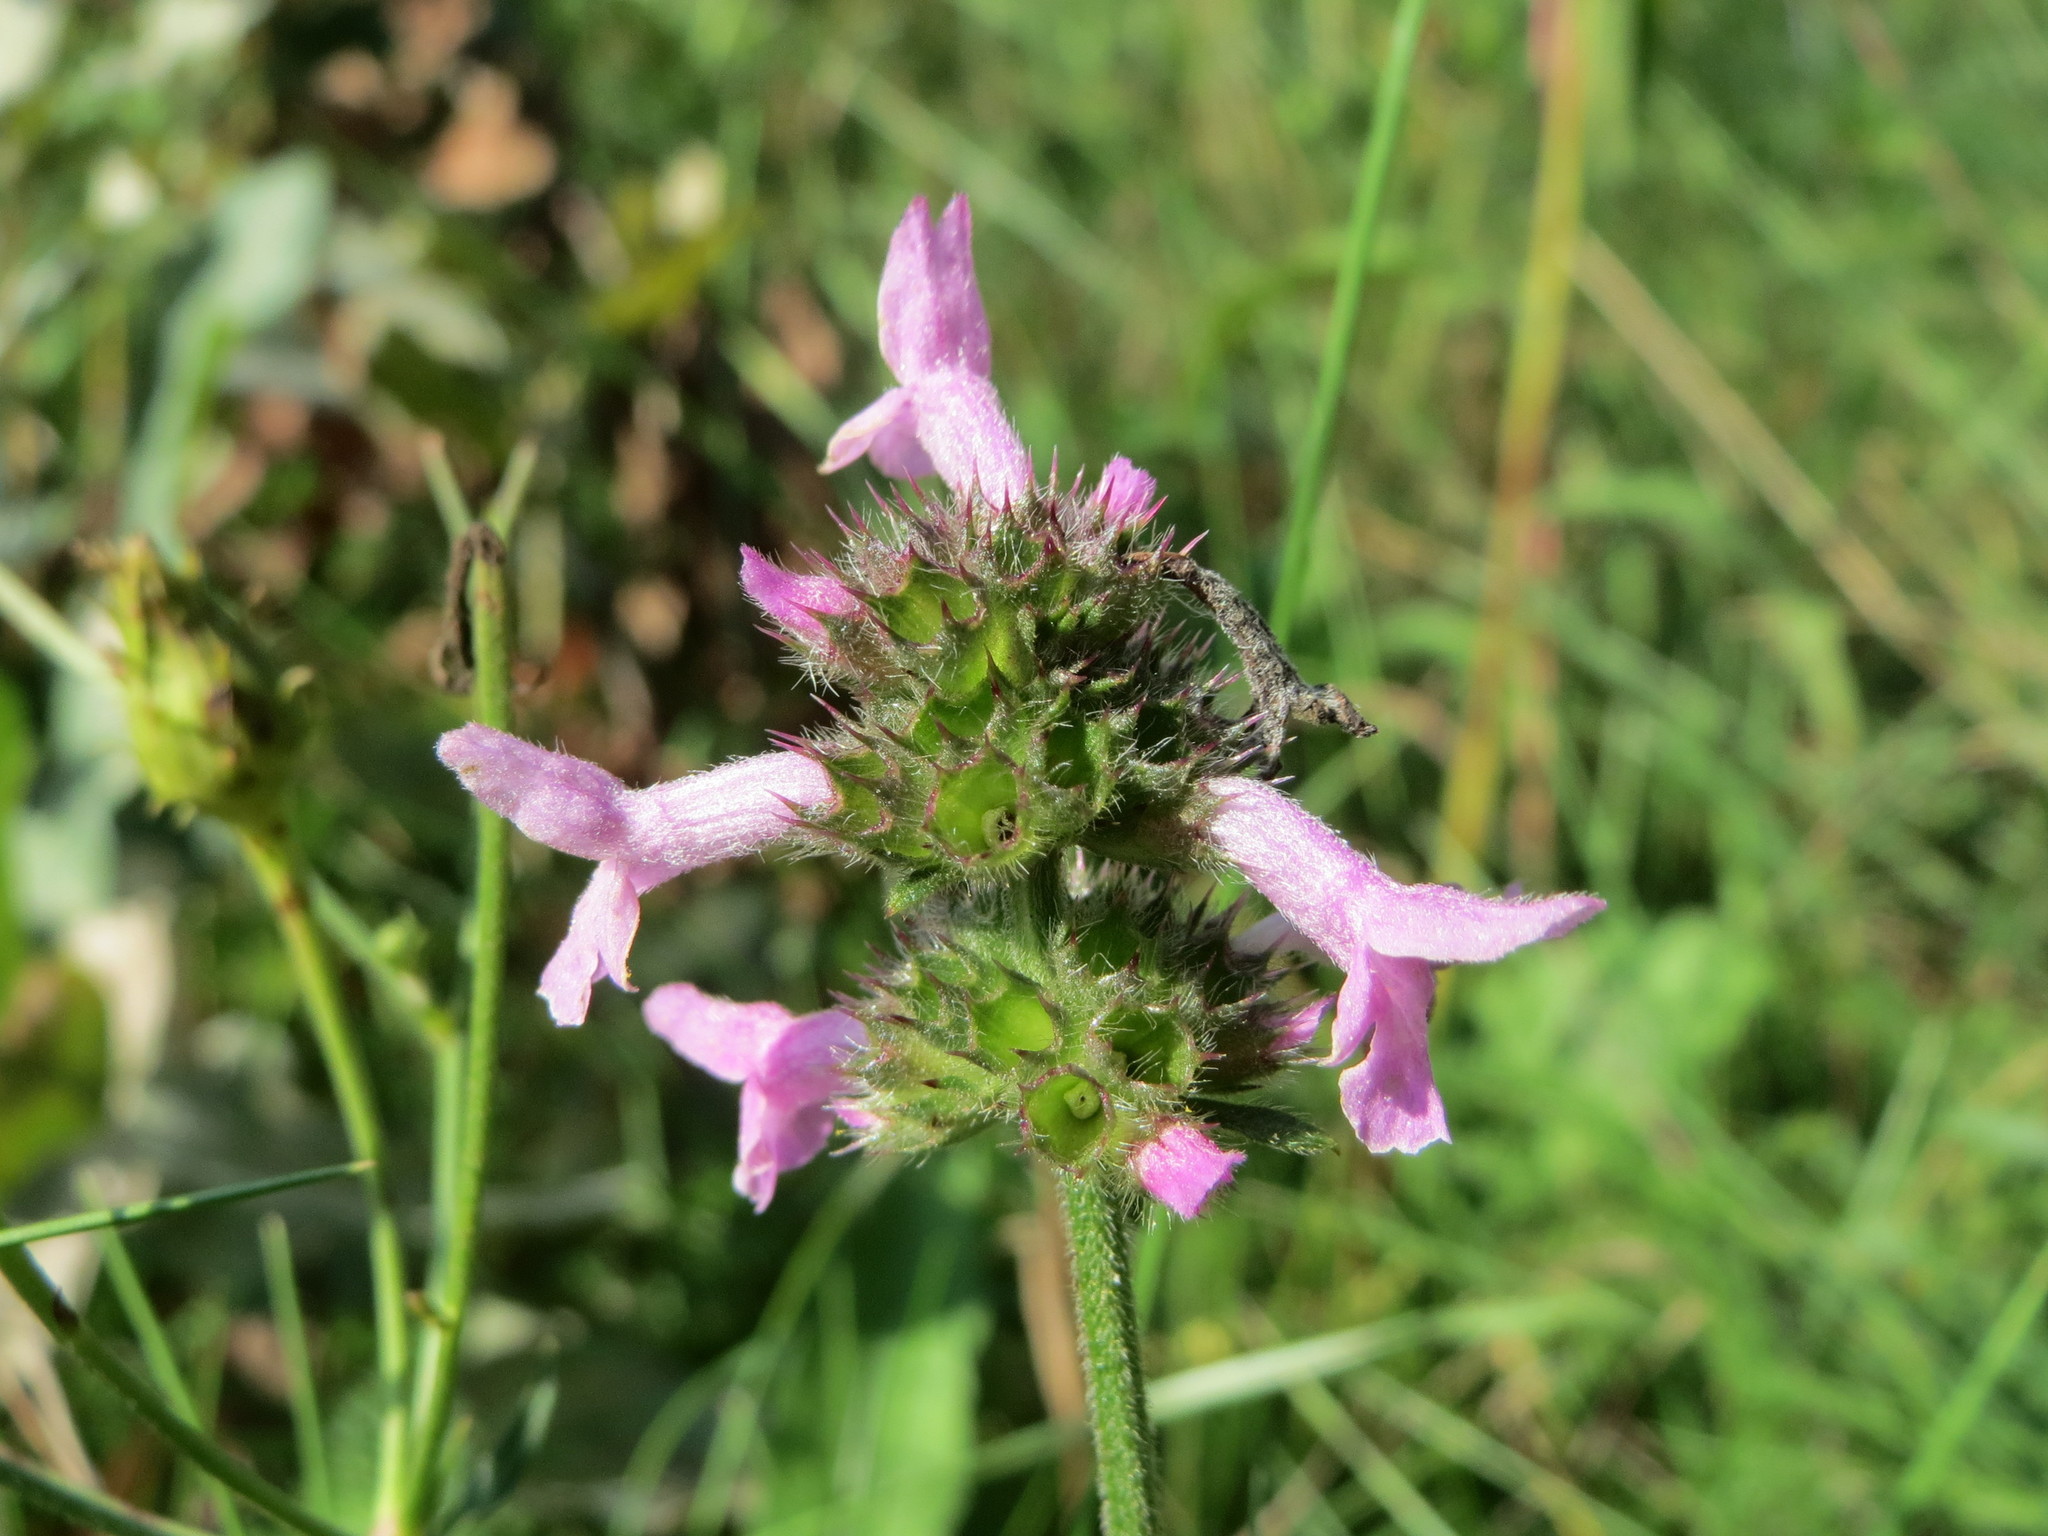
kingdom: Plantae
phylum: Tracheophyta
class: Magnoliopsida
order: Lamiales
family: Lamiaceae
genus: Betonica
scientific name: Betonica officinalis
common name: Bishop's-wort
